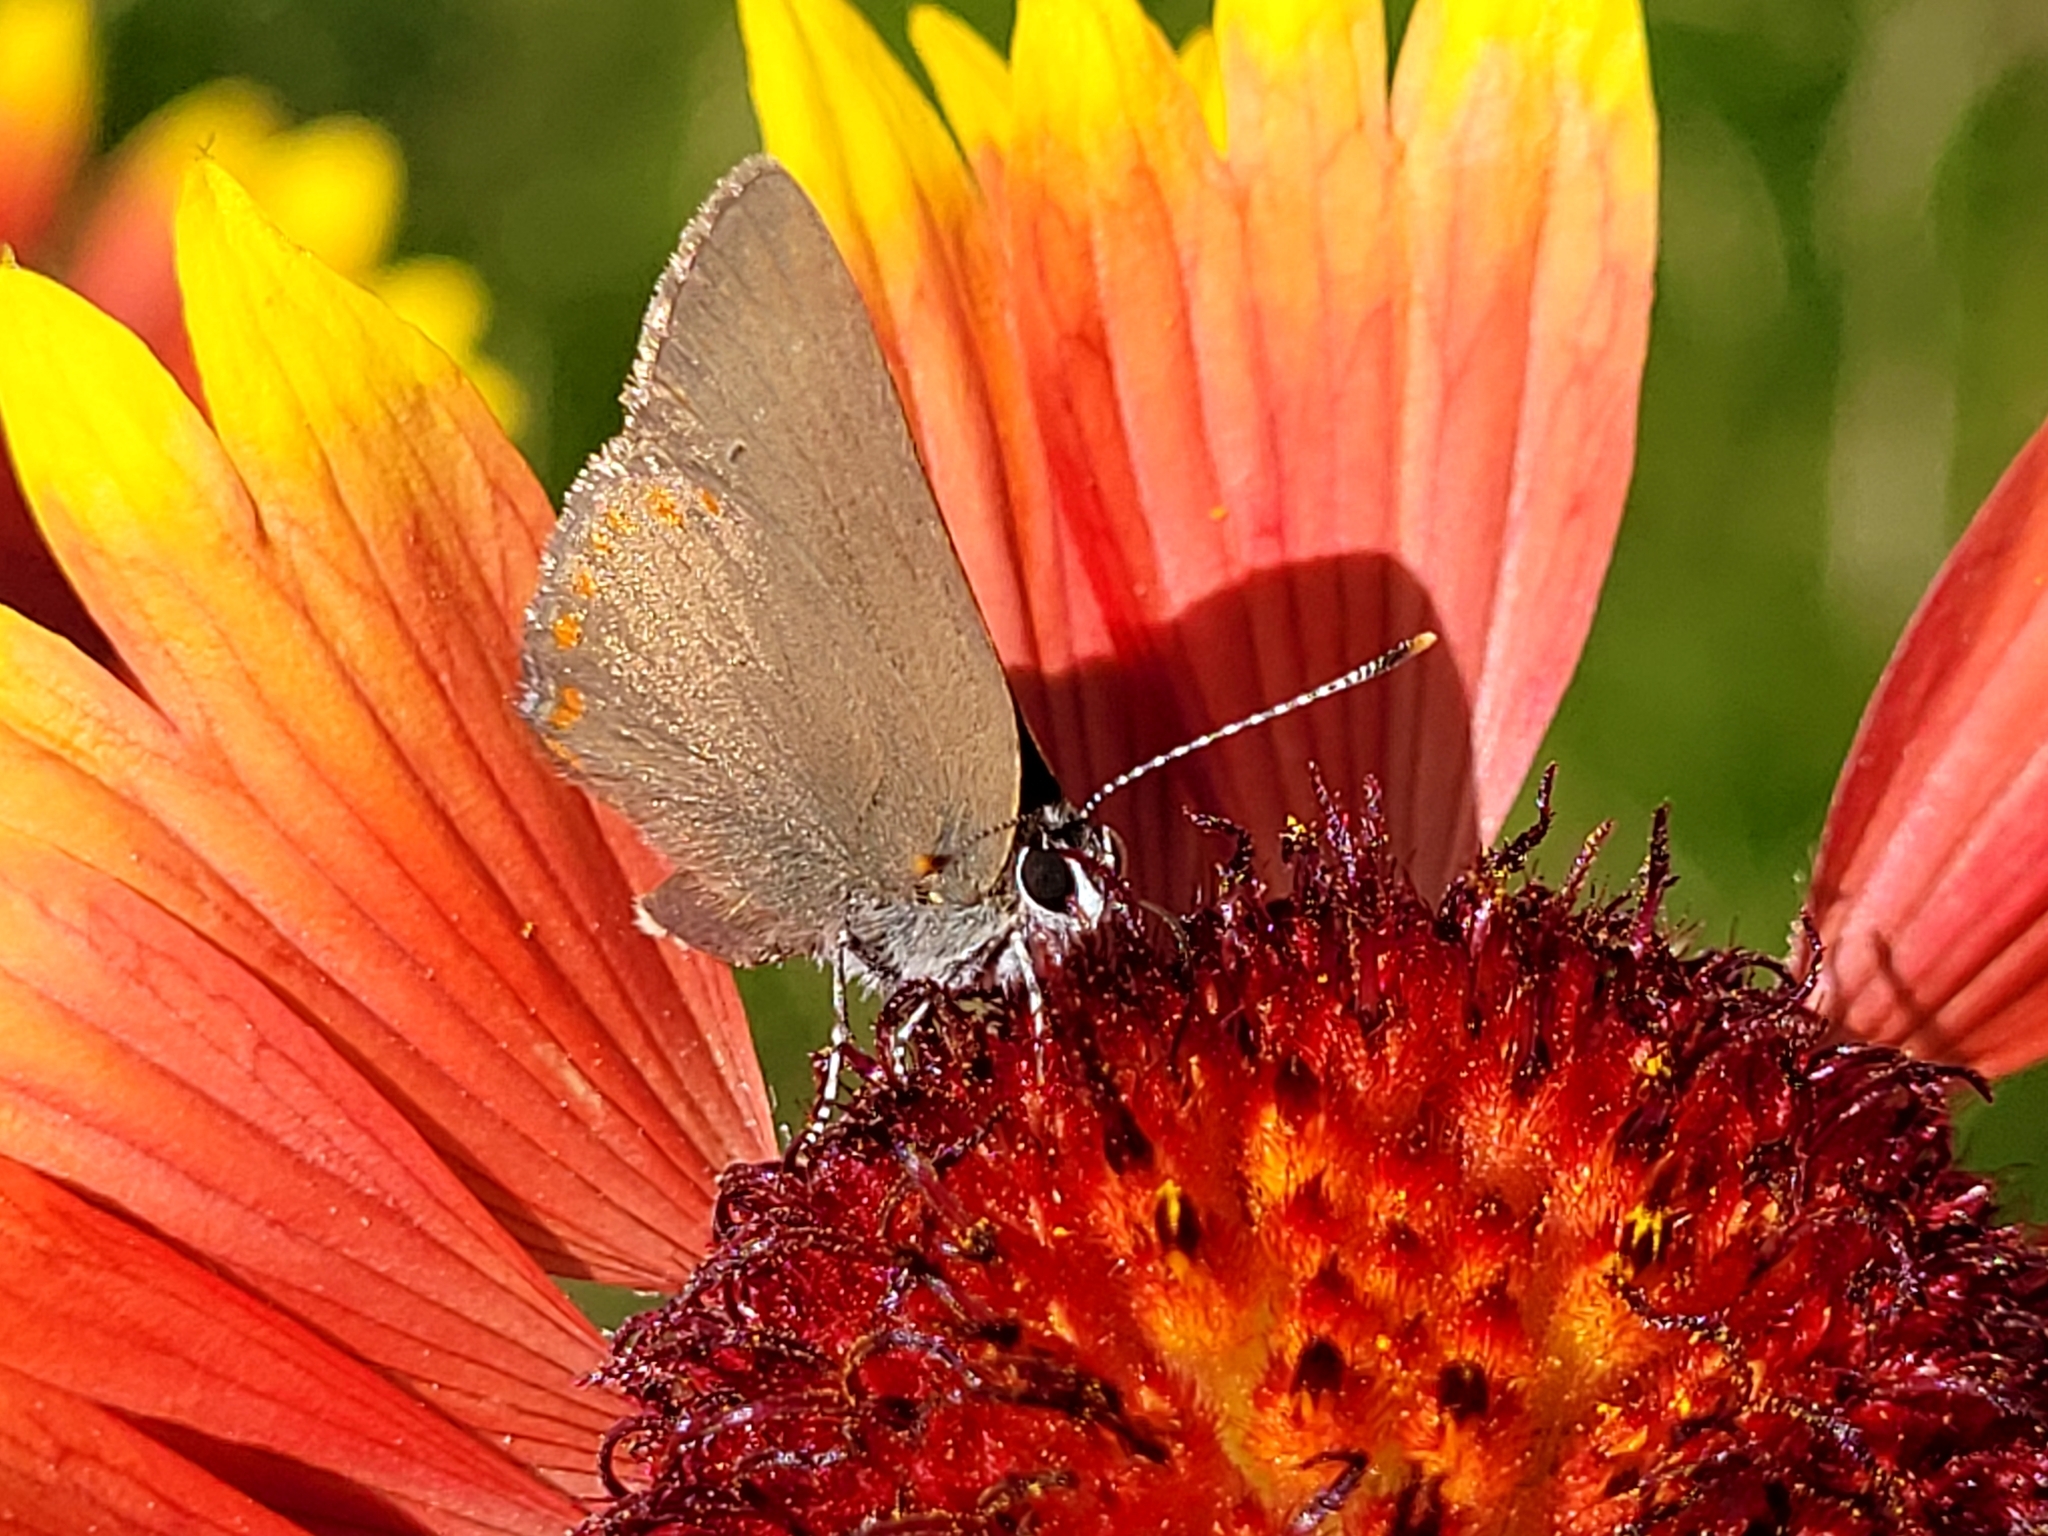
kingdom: Animalia
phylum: Arthropoda
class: Insecta
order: Lepidoptera
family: Lycaenidae
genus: Harkenclenus
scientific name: Harkenclenus titus
